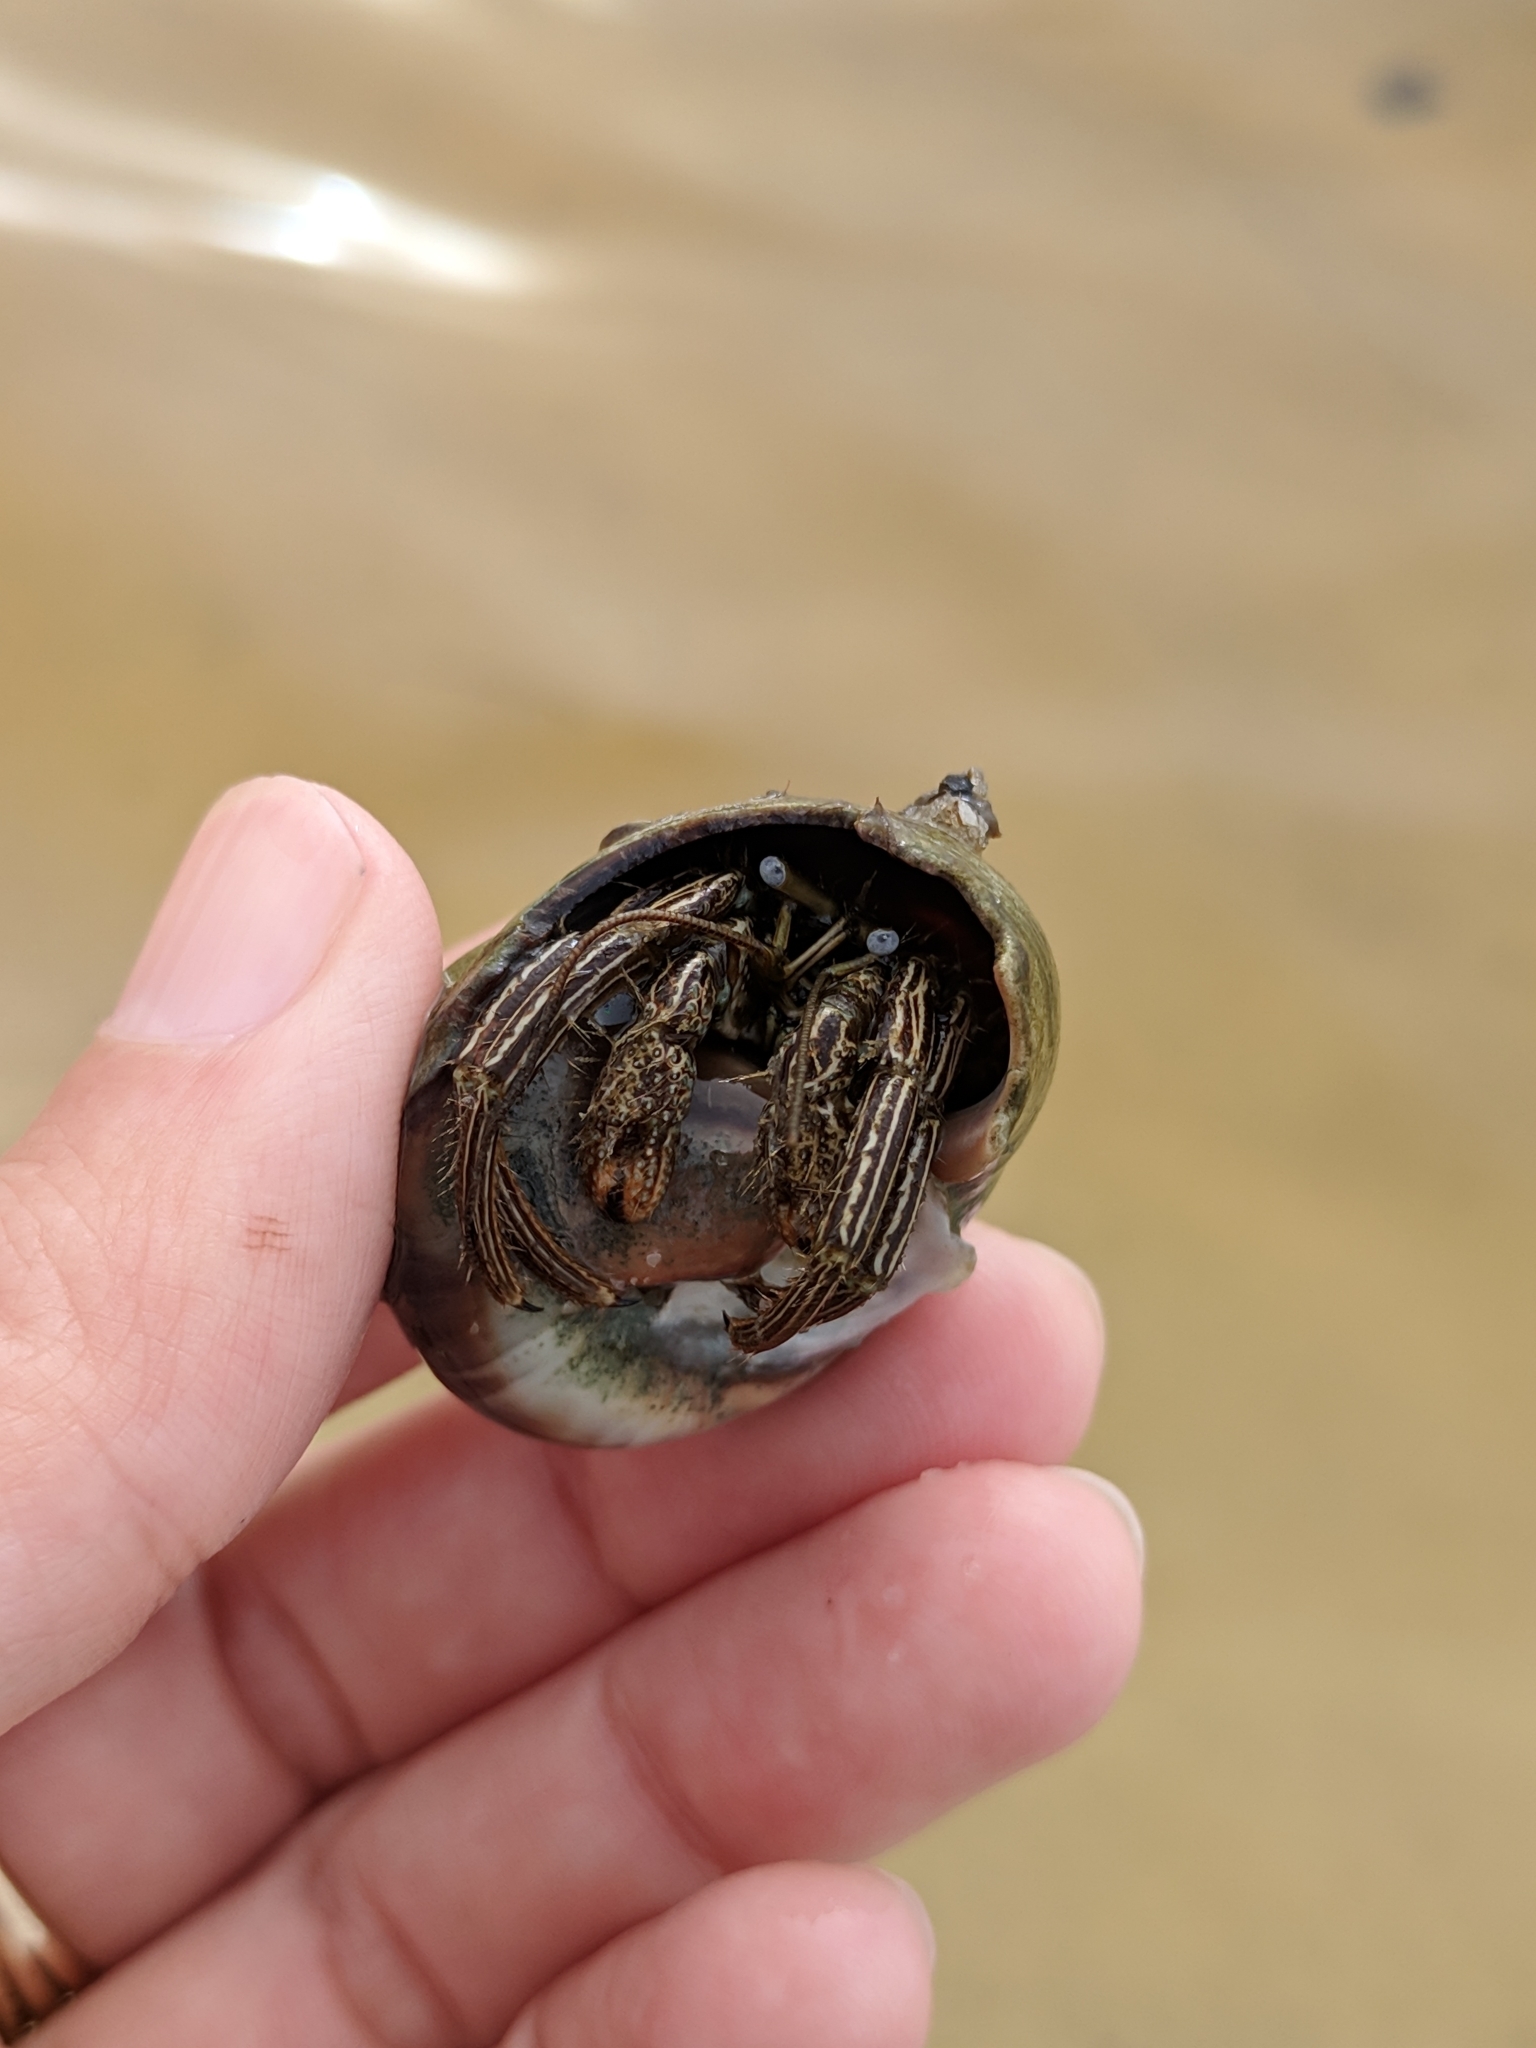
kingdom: Animalia
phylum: Arthropoda
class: Malacostraca
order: Decapoda
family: Diogenidae
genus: Clibanarius
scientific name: Clibanarius vittatus
